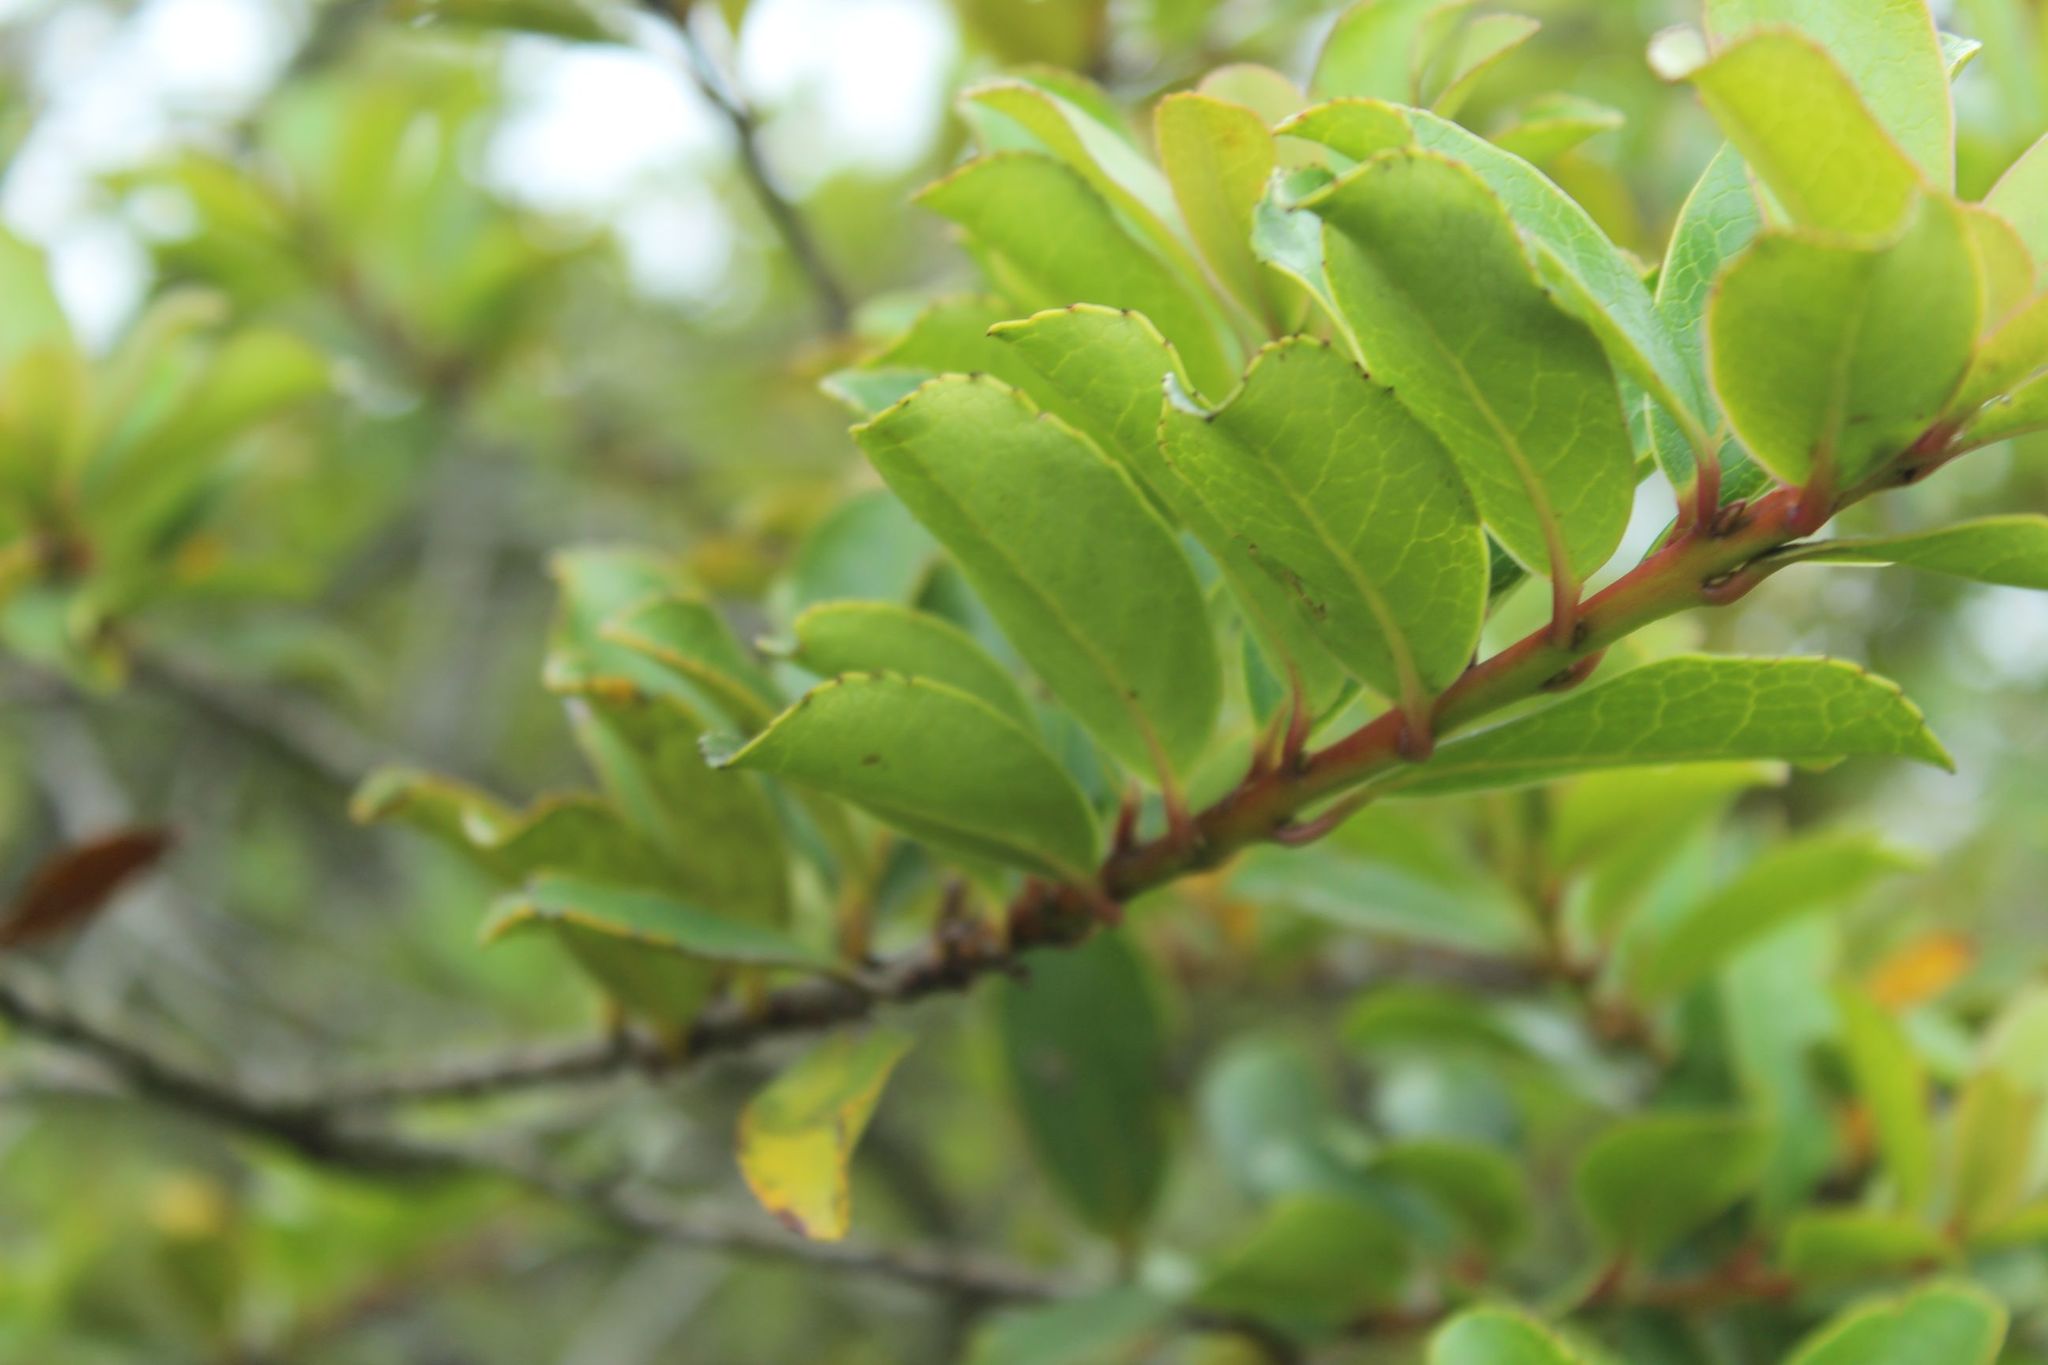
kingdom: Plantae
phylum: Tracheophyta
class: Magnoliopsida
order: Malpighiales
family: Salicaceae
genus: Xylosma
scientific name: Xylosma spiculifera
